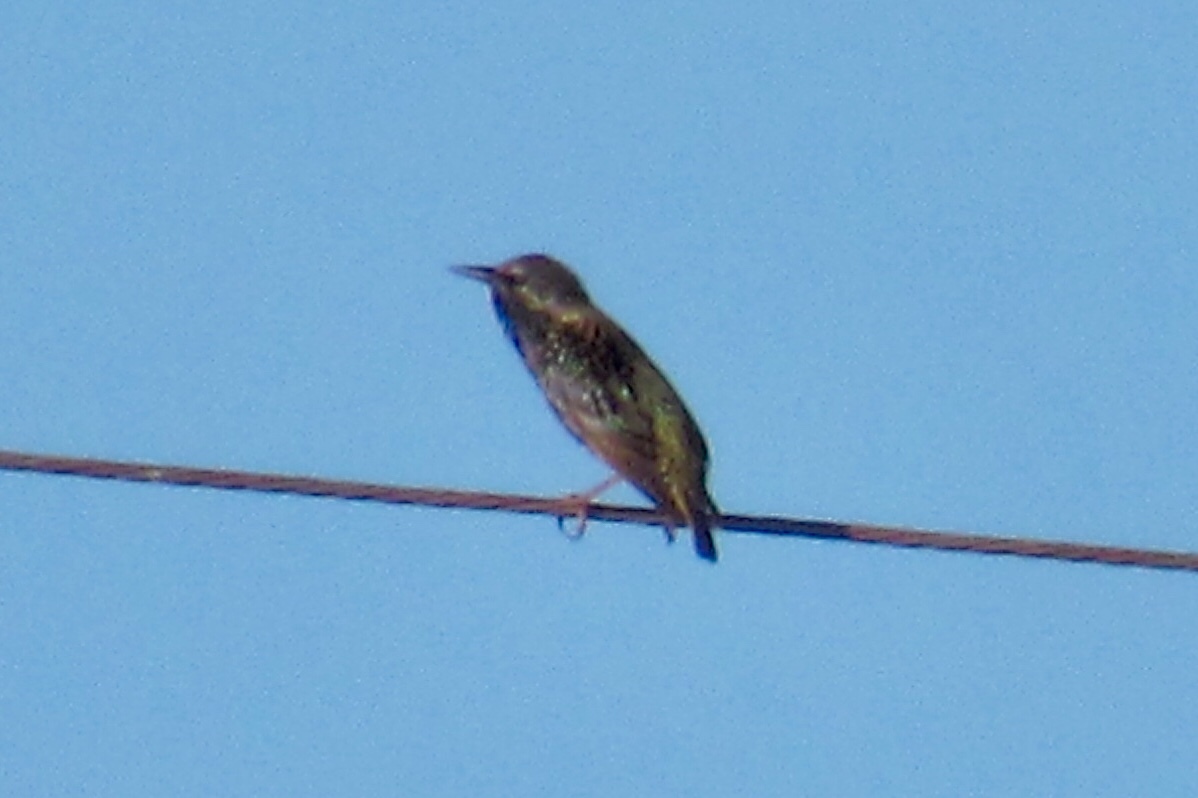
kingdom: Animalia
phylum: Chordata
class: Aves
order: Passeriformes
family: Sturnidae
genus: Sturnus
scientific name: Sturnus vulgaris
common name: Common starling
